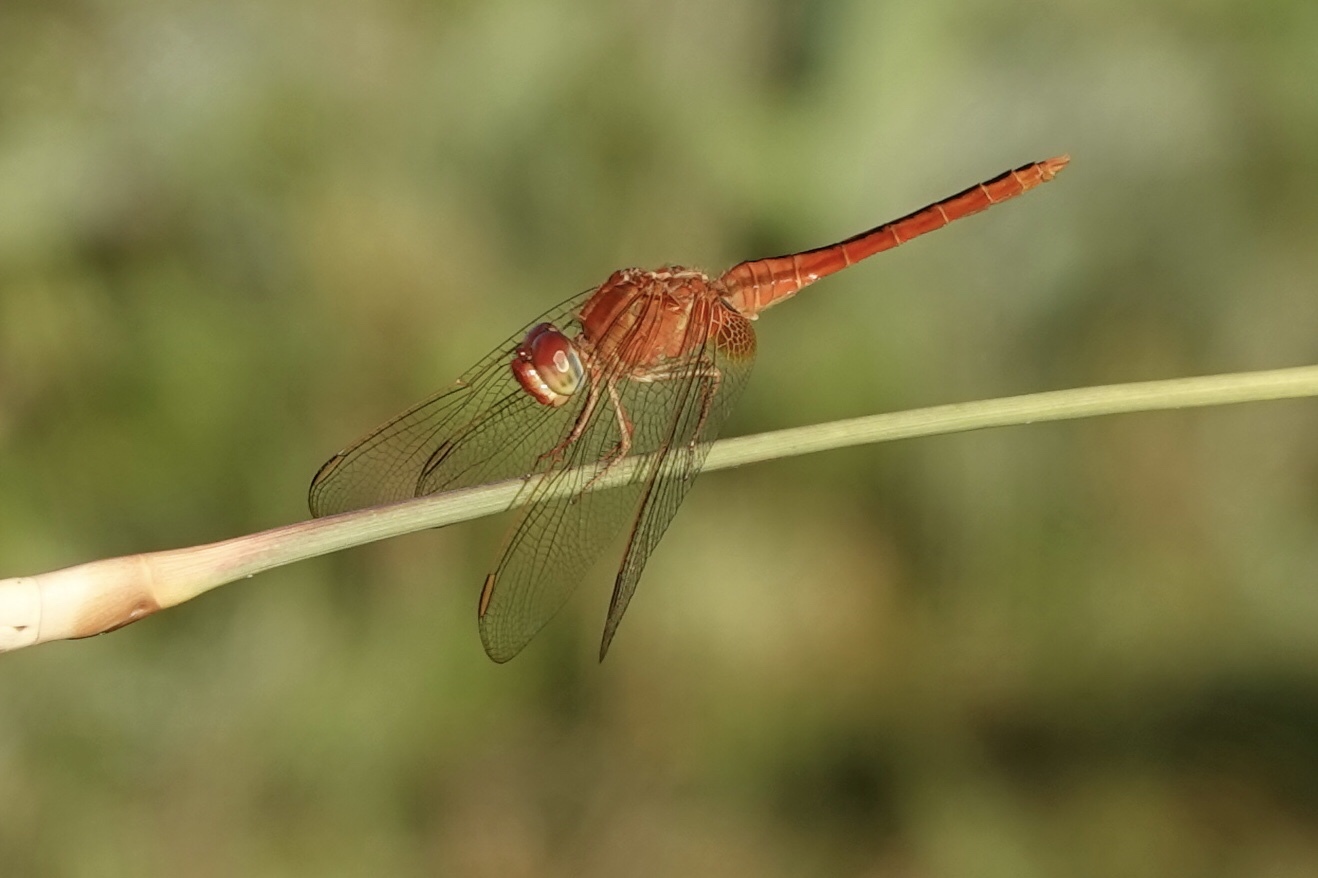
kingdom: Animalia
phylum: Arthropoda
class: Insecta
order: Odonata
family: Libellulidae
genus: Brachymesia
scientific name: Brachymesia gravida
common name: Four-spotted pennant
